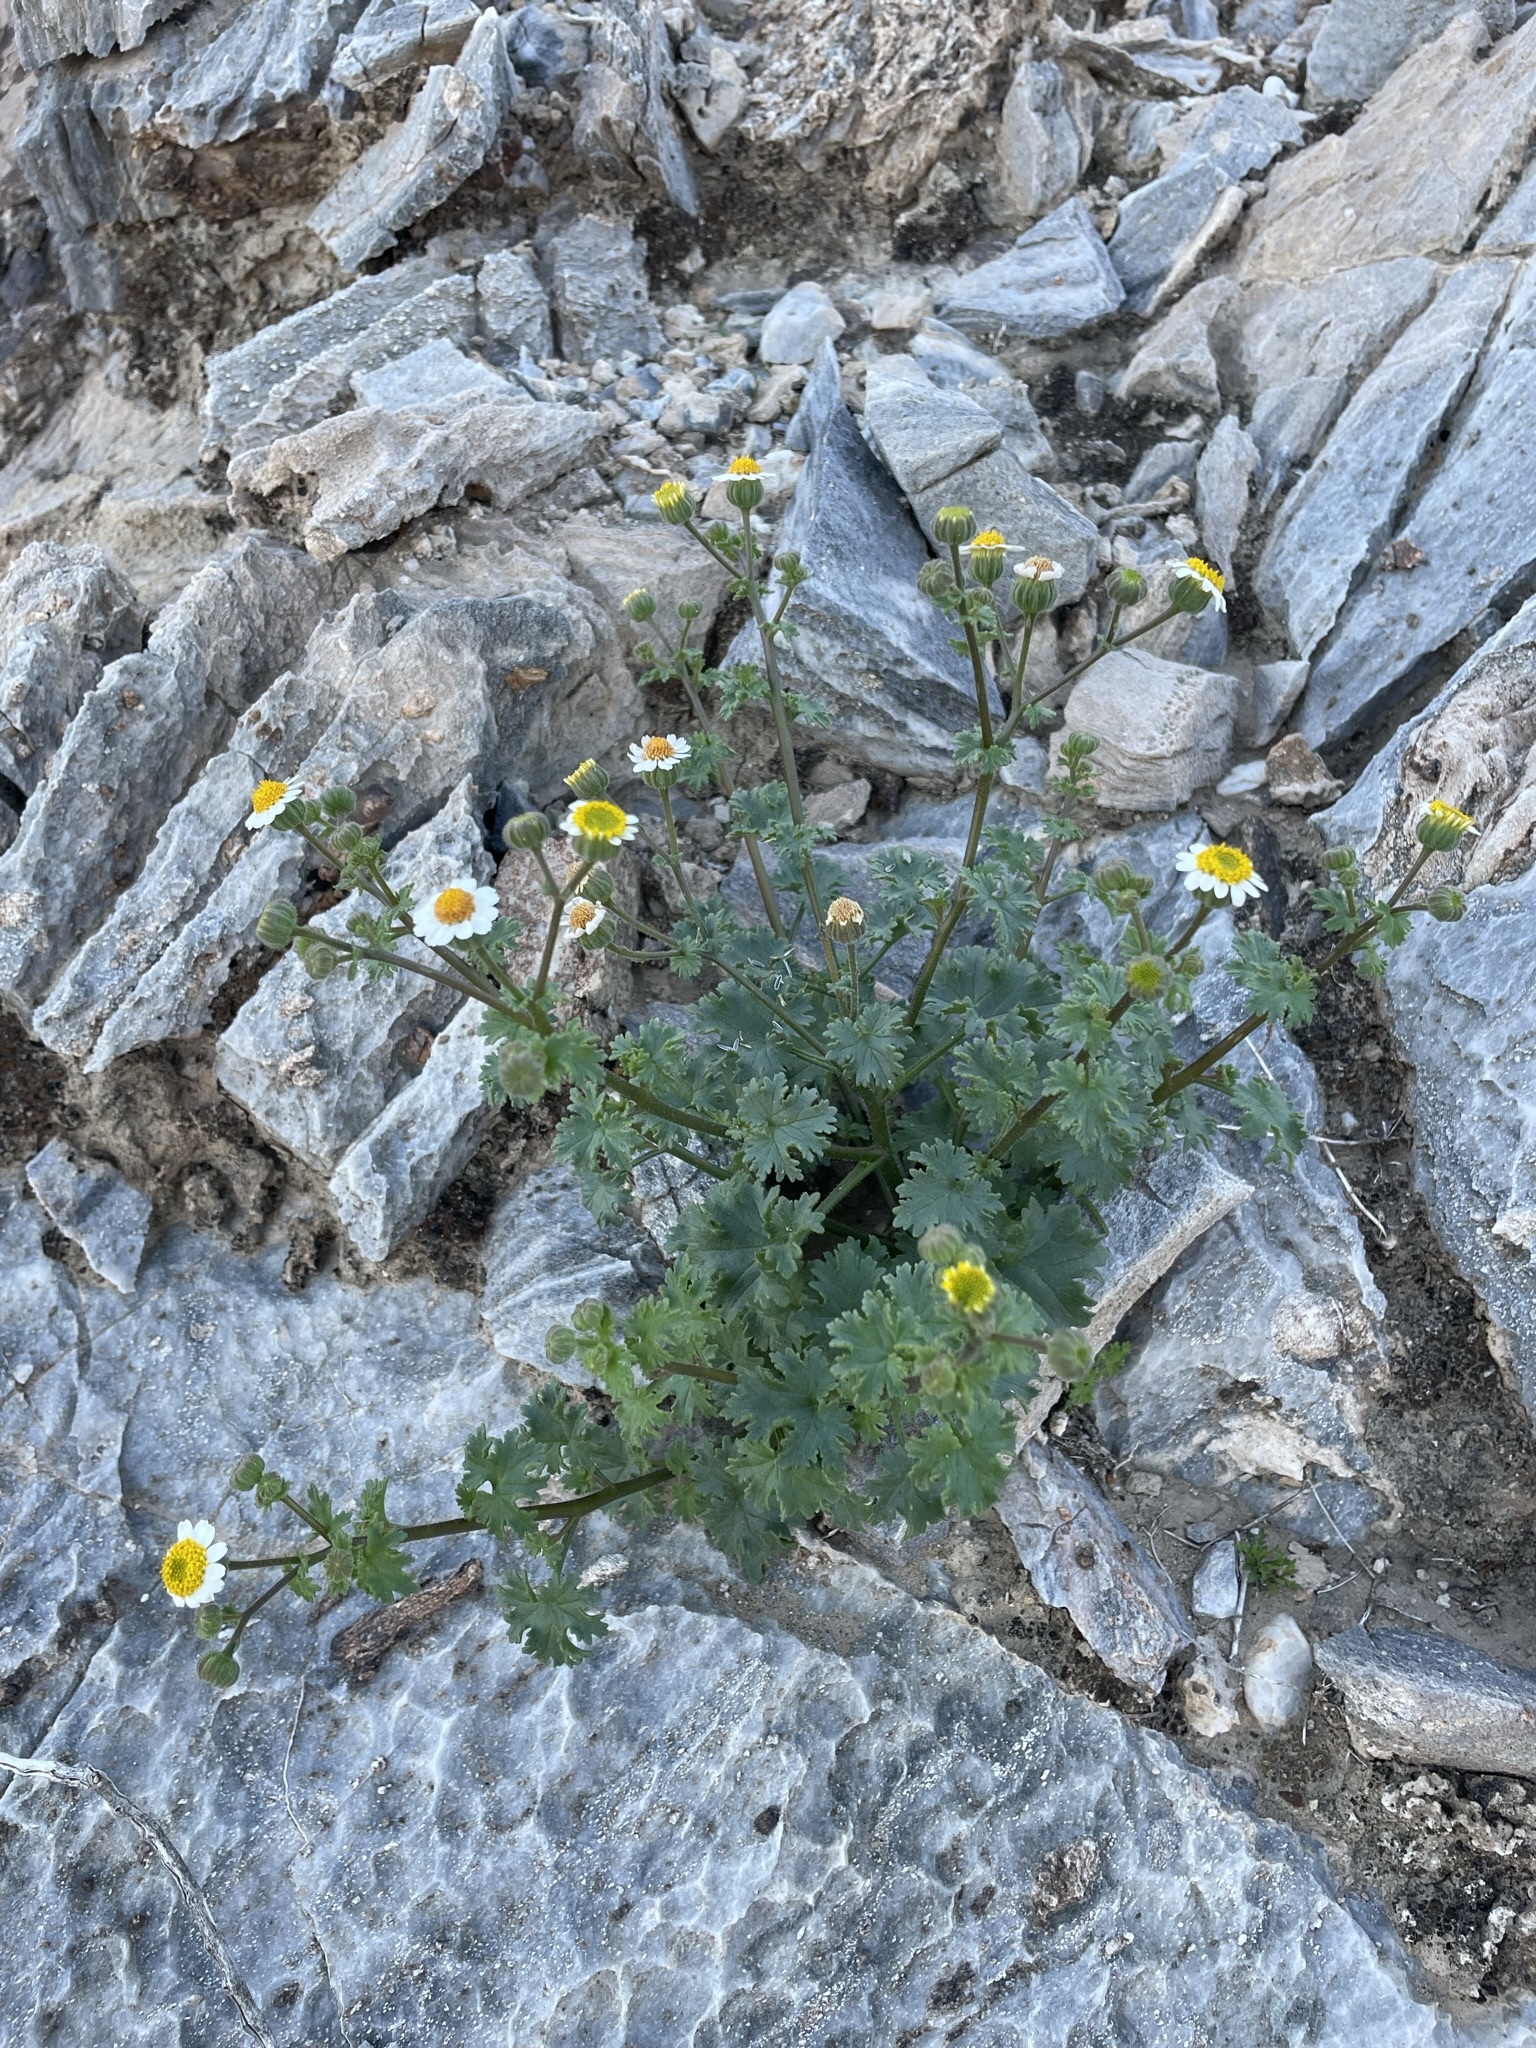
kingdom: Plantae
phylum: Tracheophyta
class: Magnoliopsida
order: Asterales
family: Asteraceae
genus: Laphamia
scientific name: Laphamia emoryi
